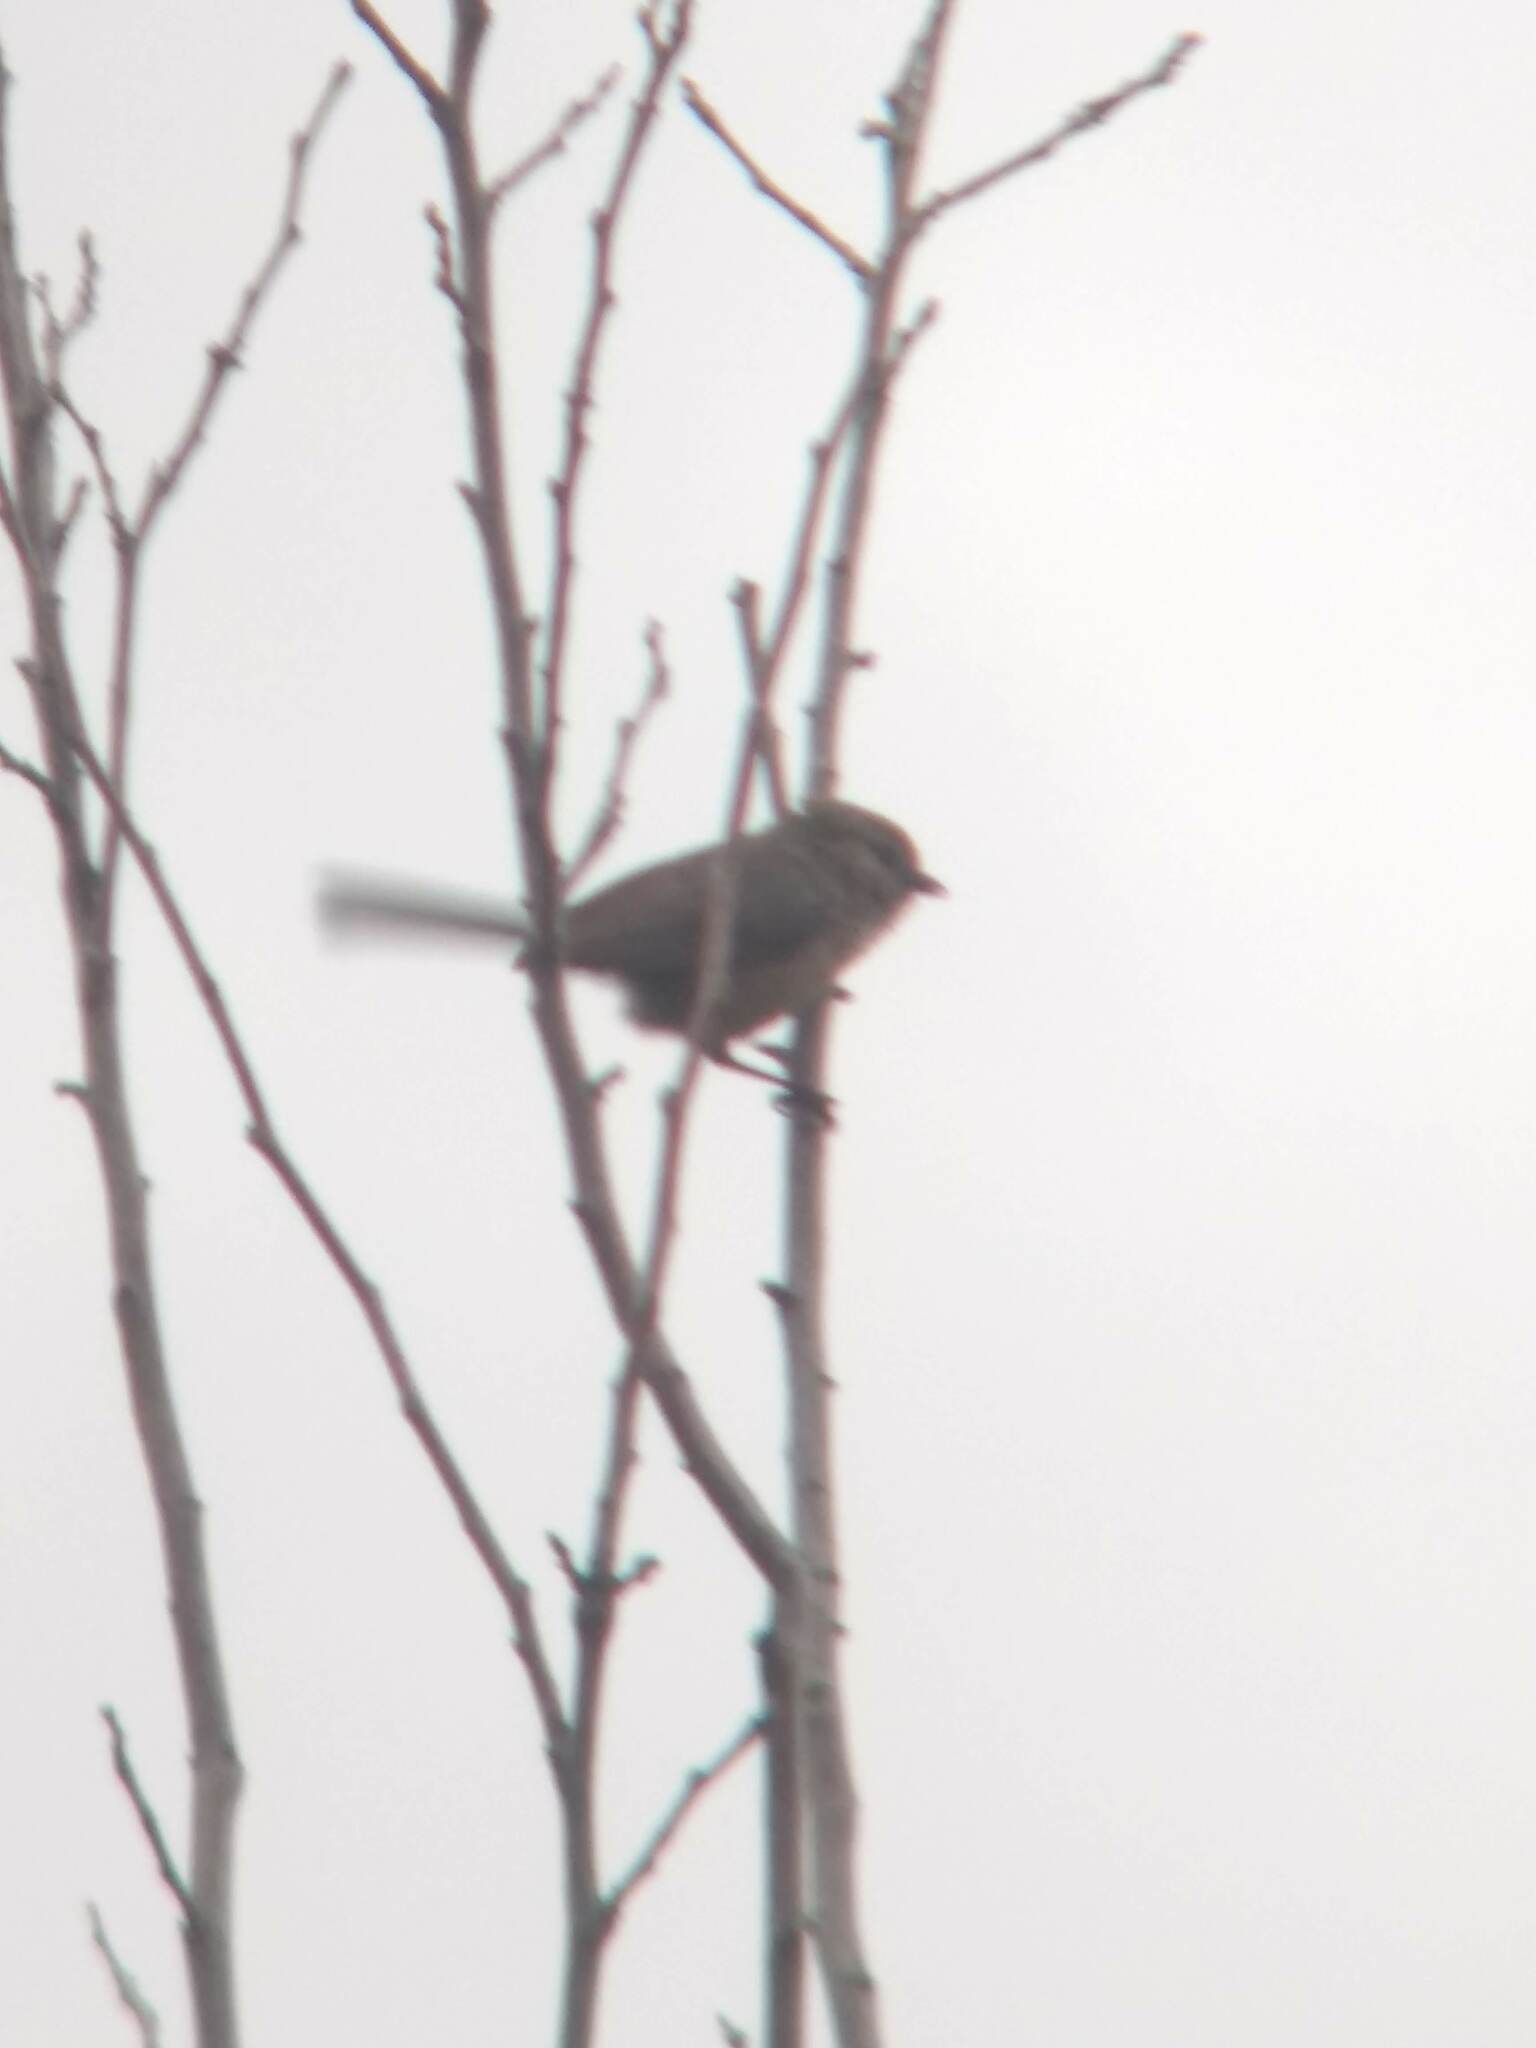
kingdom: Animalia
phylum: Chordata
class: Aves
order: Passeriformes
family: Aegithalidae
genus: Psaltriparus
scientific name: Psaltriparus minimus
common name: American bushtit
